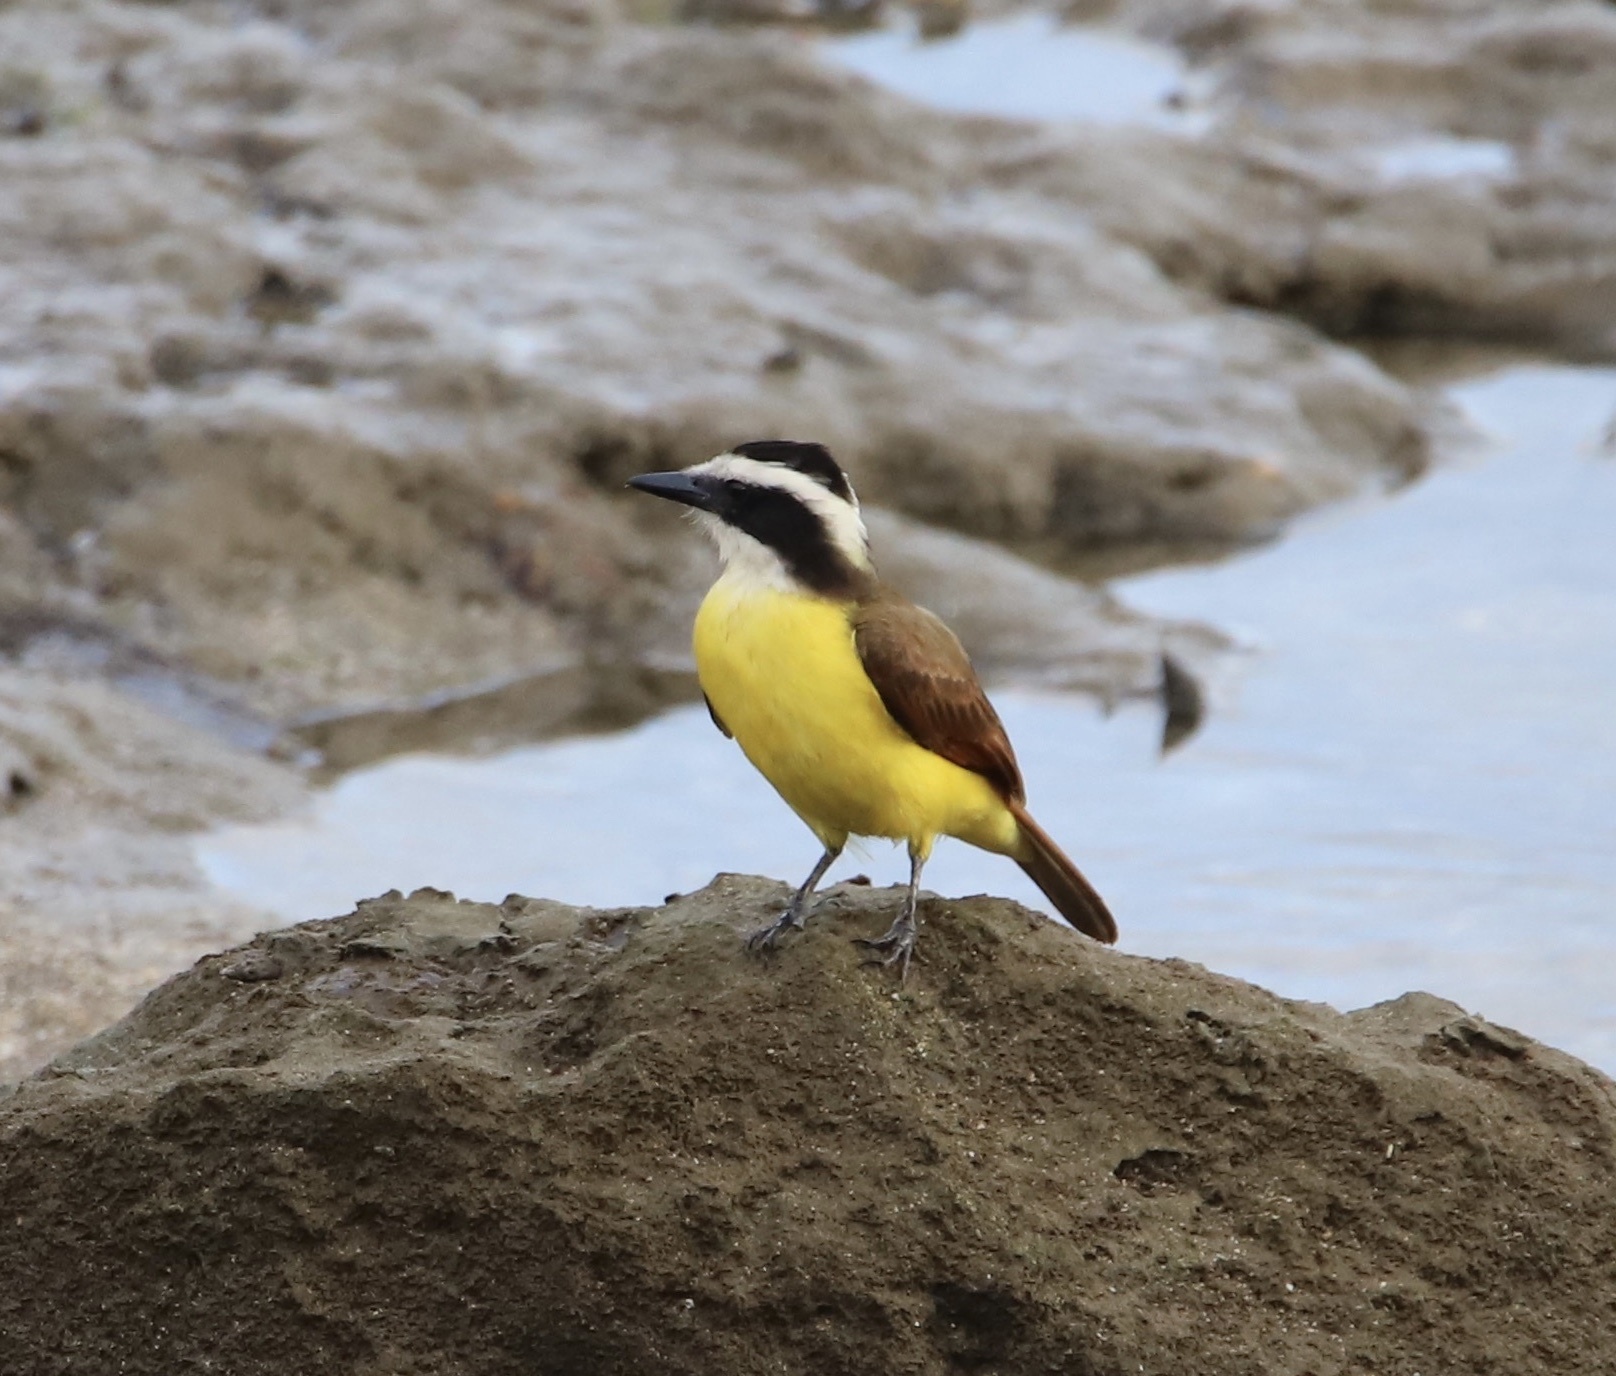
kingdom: Animalia
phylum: Chordata
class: Aves
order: Passeriformes
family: Tyrannidae
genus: Pitangus
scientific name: Pitangus sulphuratus
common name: Great kiskadee
